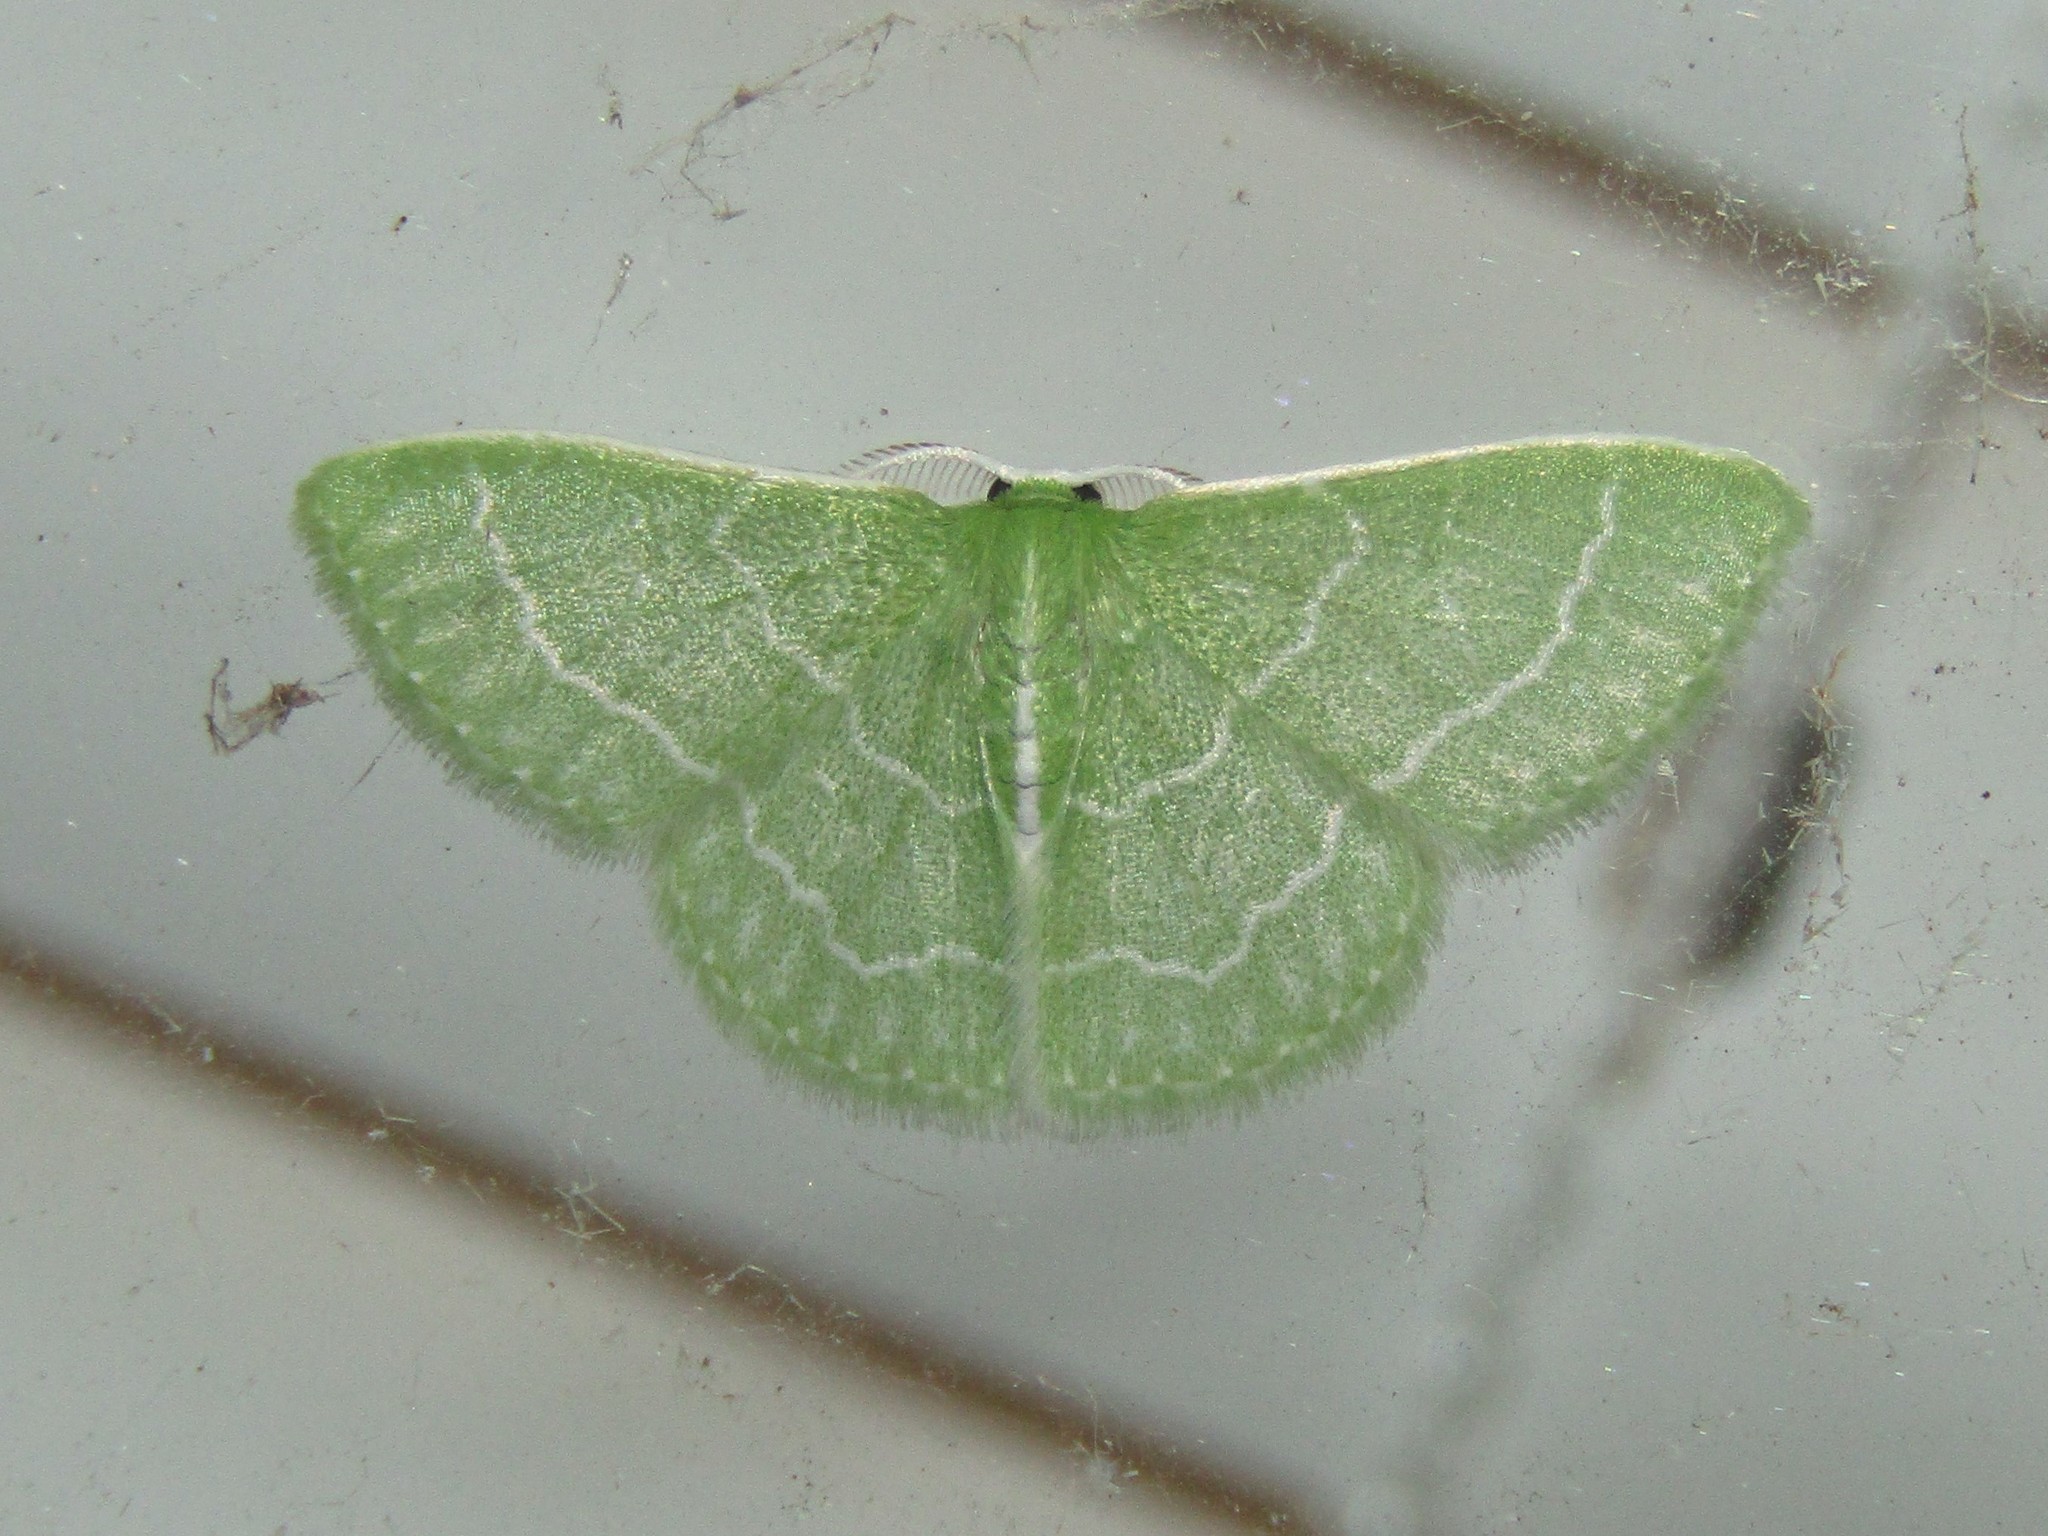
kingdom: Animalia
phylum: Arthropoda
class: Insecta
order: Lepidoptera
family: Geometridae
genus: Synchlora
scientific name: Synchlora aerata
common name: Wavy-lined emerald
